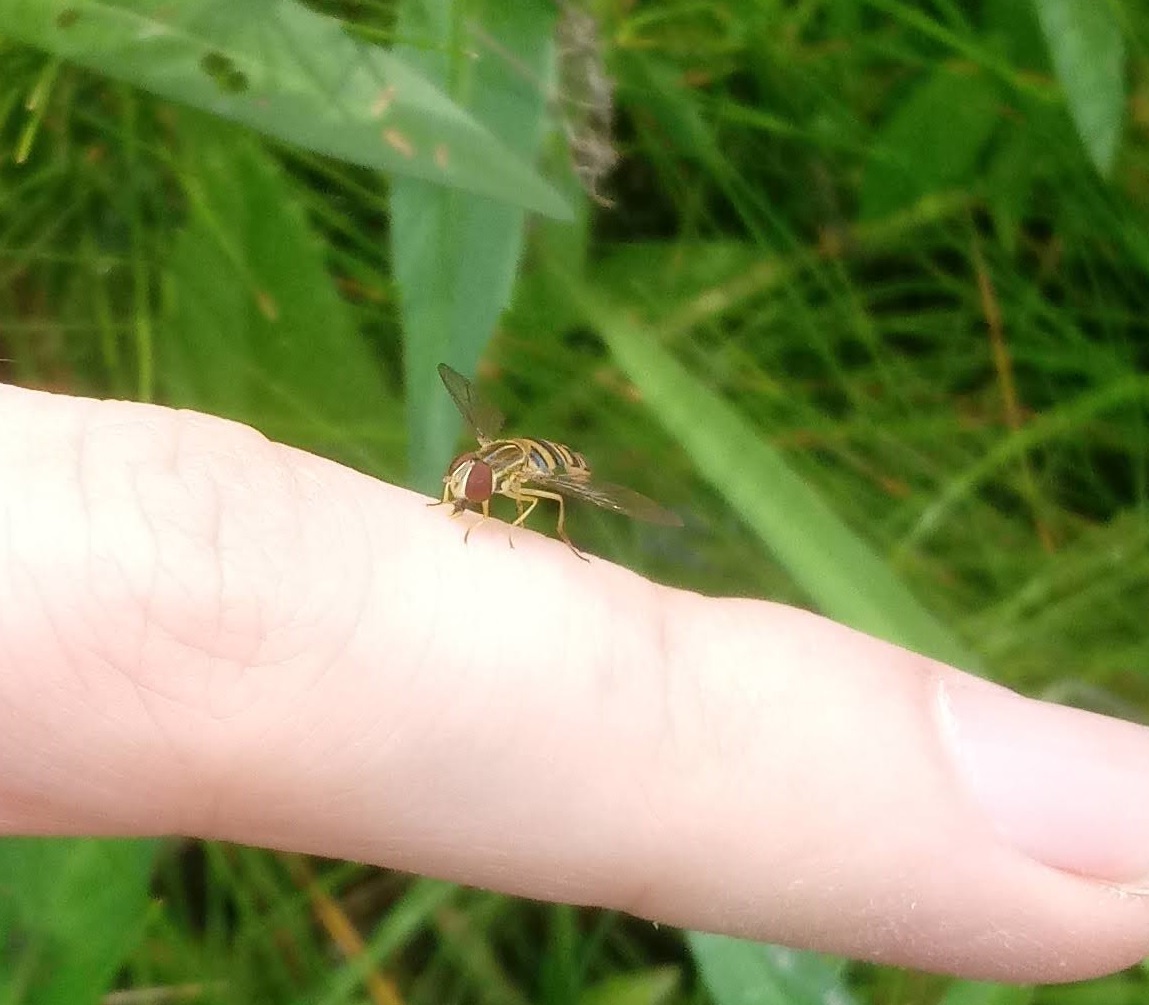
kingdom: Animalia
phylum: Arthropoda
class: Insecta
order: Diptera
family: Syrphidae
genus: Toxomerus
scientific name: Toxomerus politus
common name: Maize calligrapher
